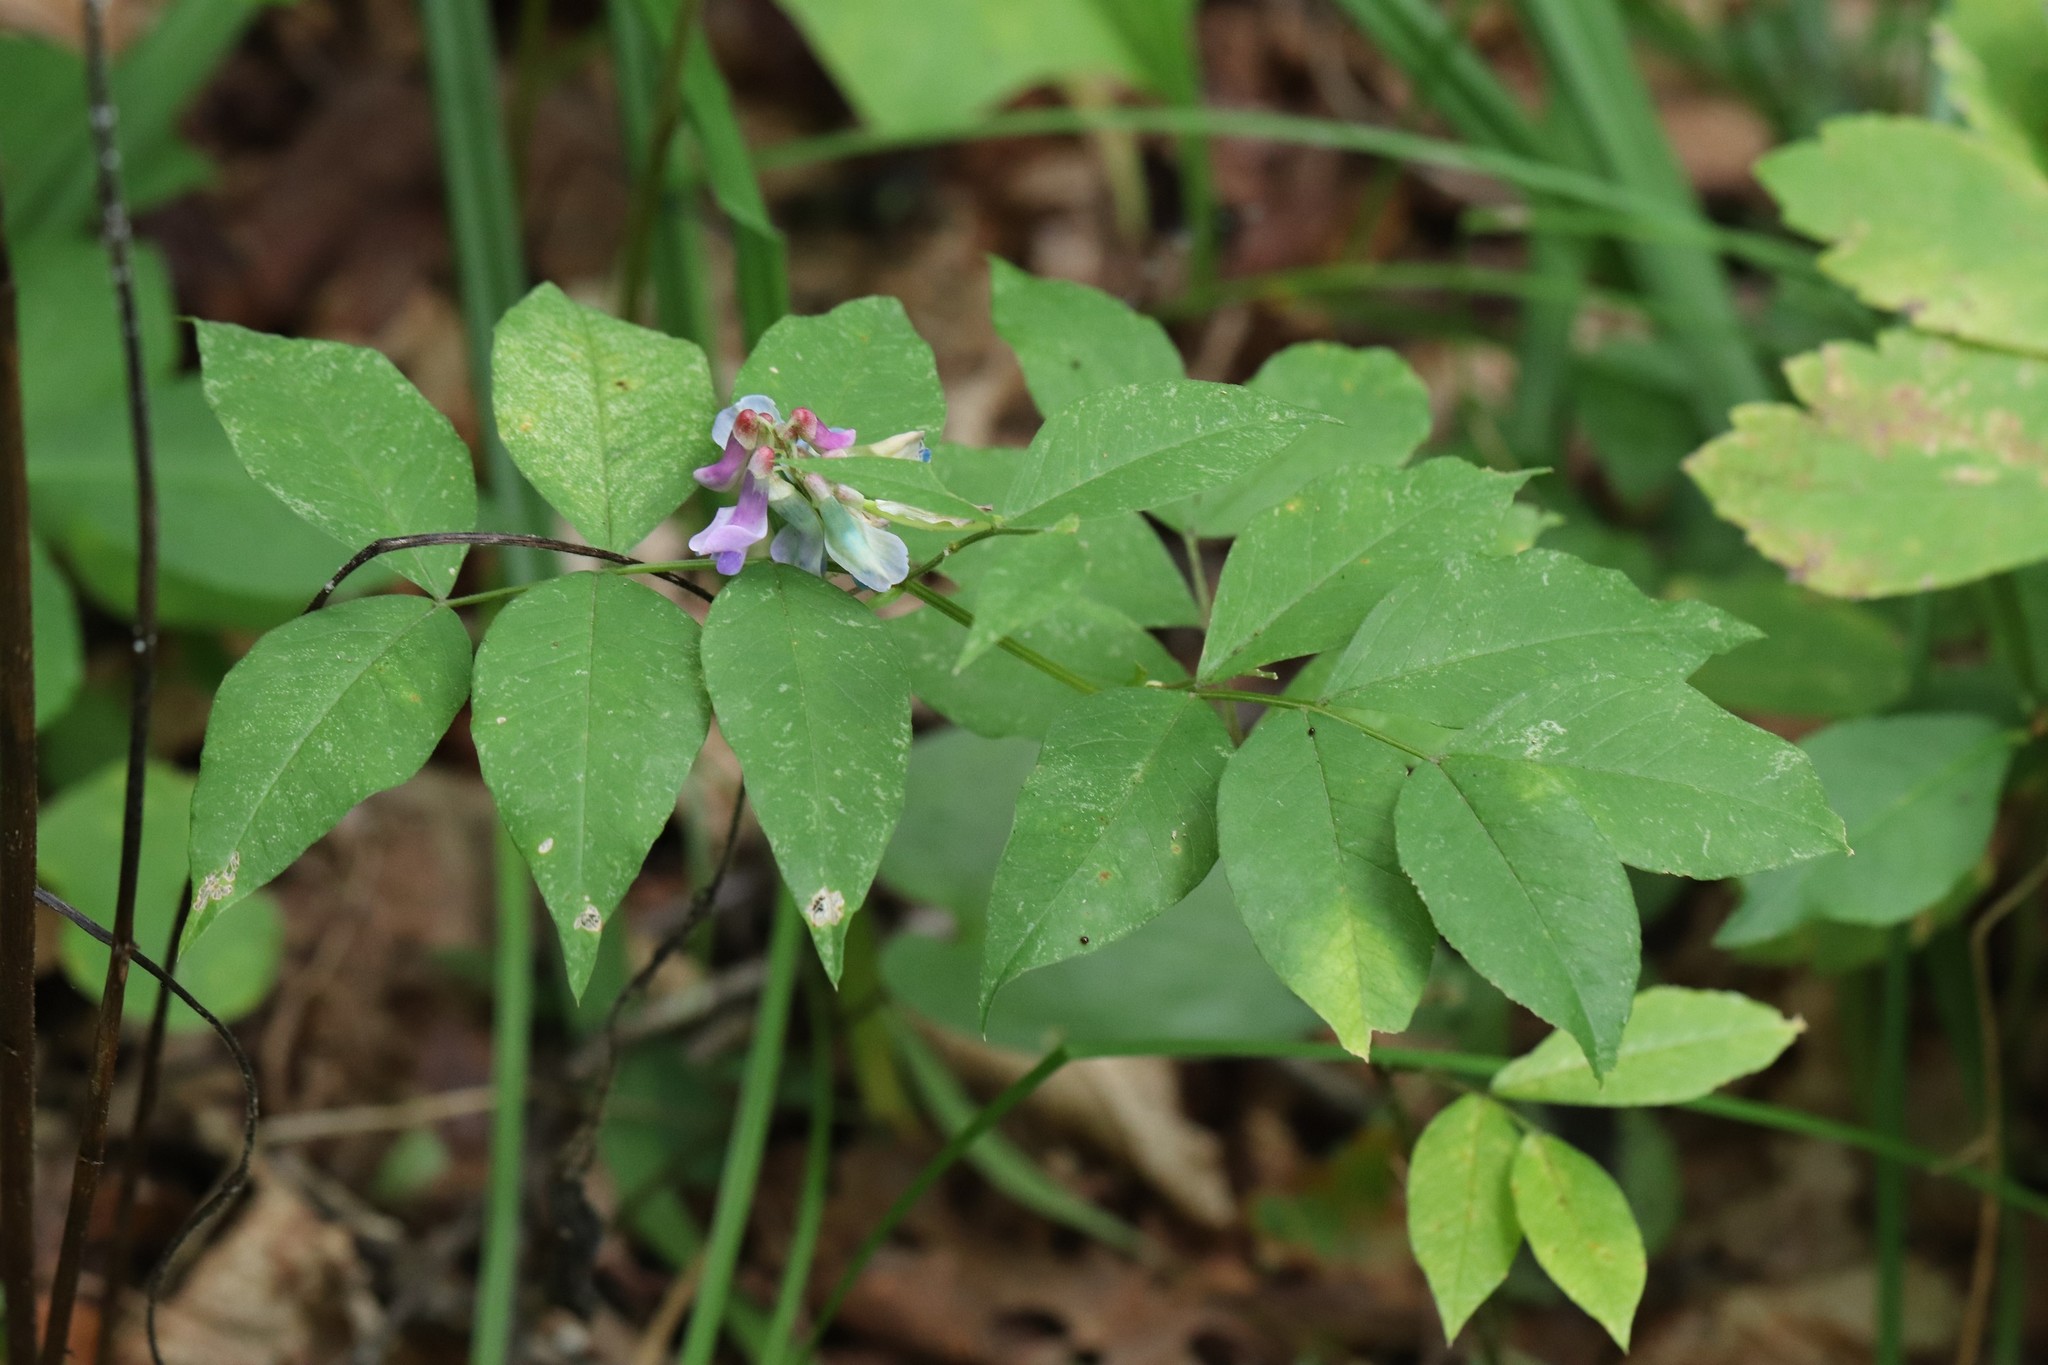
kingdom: Plantae
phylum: Tracheophyta
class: Magnoliopsida
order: Fabales
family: Fabaceae
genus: Vicia
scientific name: Vicia ramuliflora
